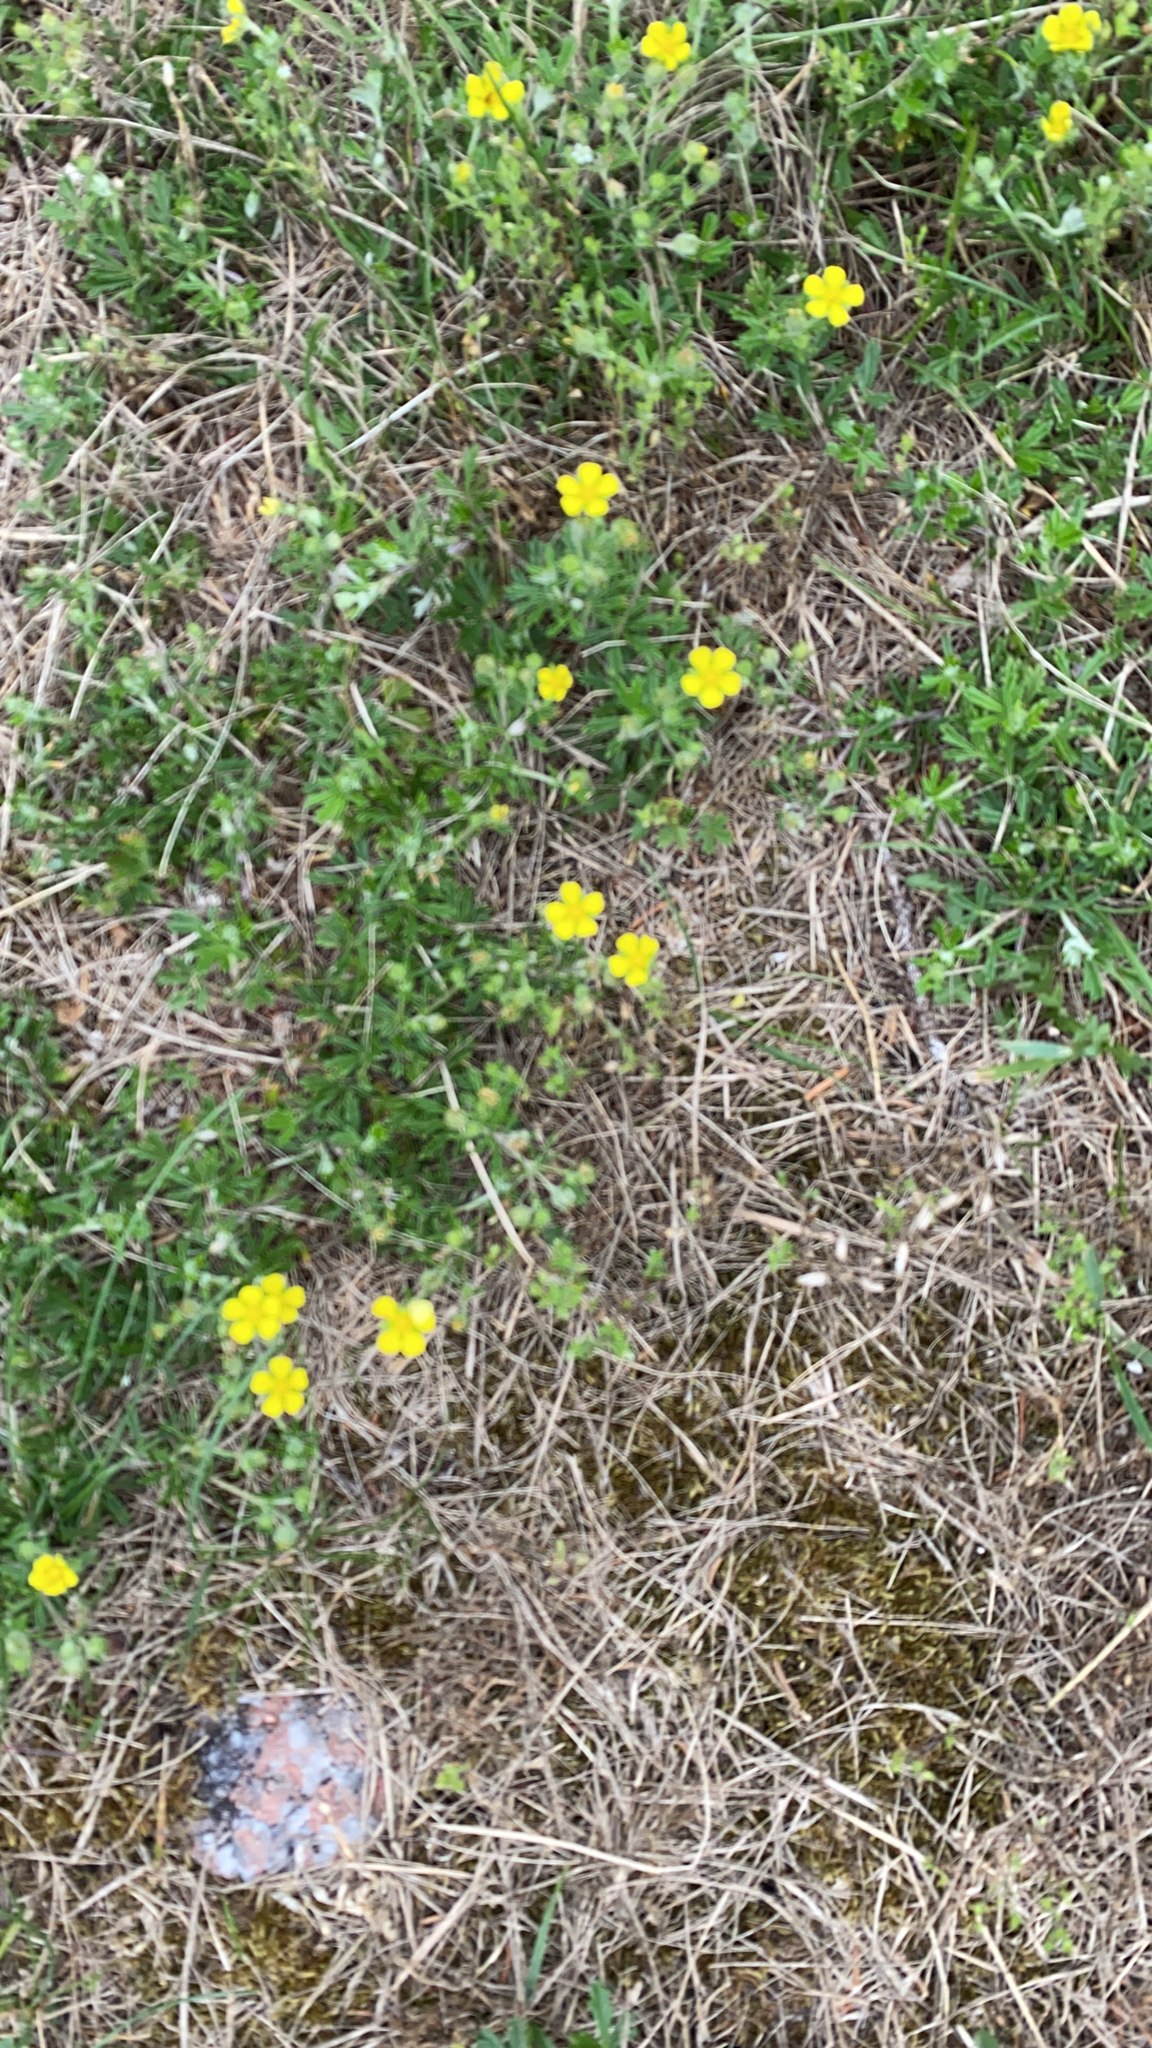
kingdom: Plantae
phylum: Tracheophyta
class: Magnoliopsida
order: Rosales
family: Rosaceae
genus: Potentilla
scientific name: Potentilla argentea
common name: Hoary cinquefoil
